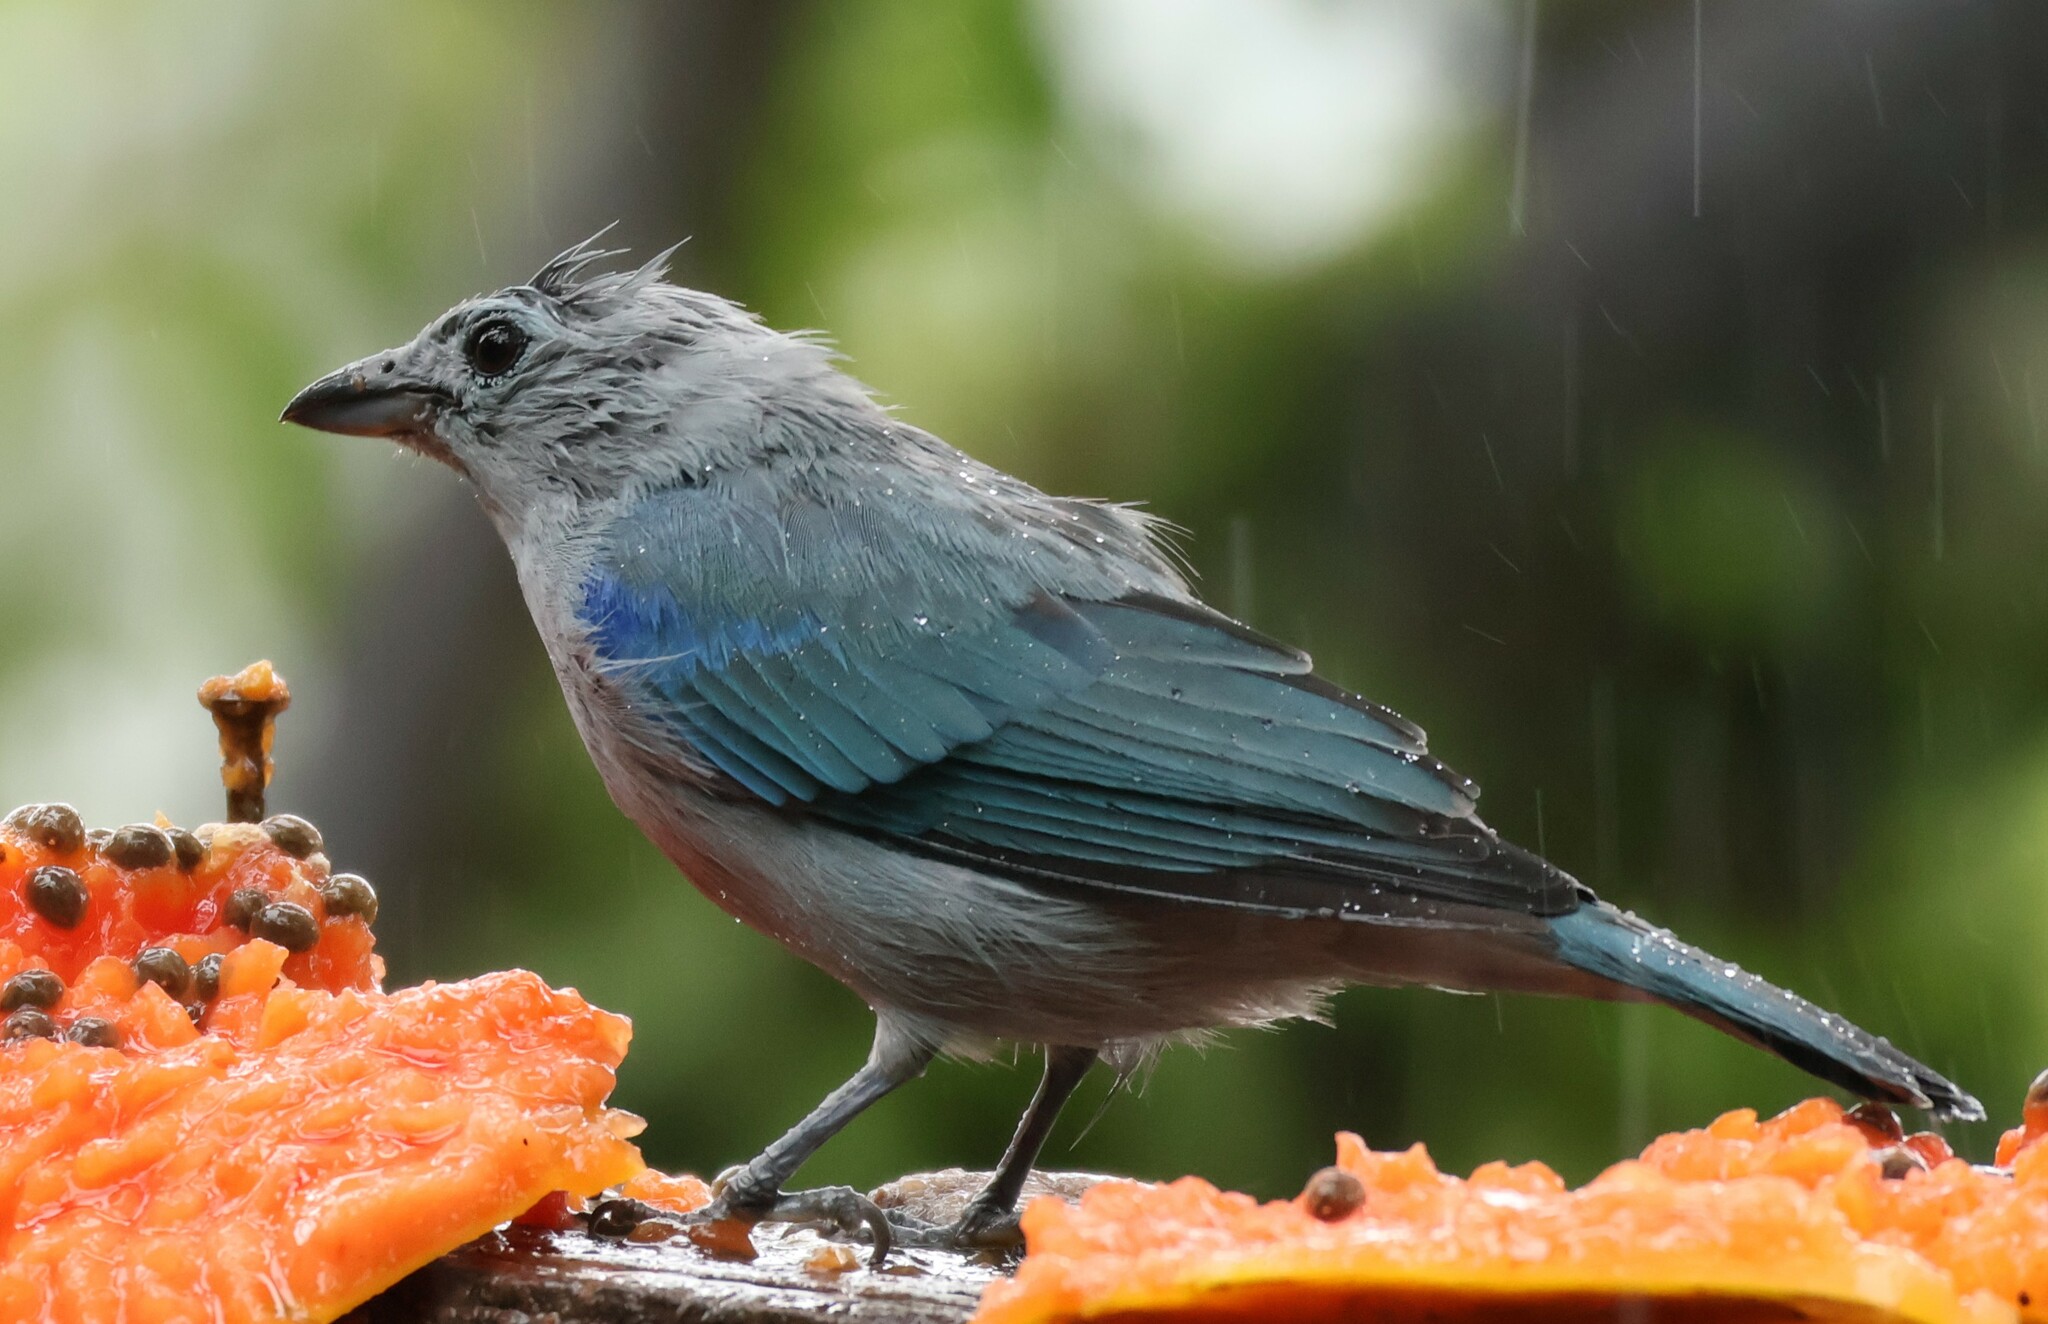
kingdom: Animalia
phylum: Chordata
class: Aves
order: Passeriformes
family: Thraupidae
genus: Thraupis
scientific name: Thraupis episcopus
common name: Blue-grey tanager
